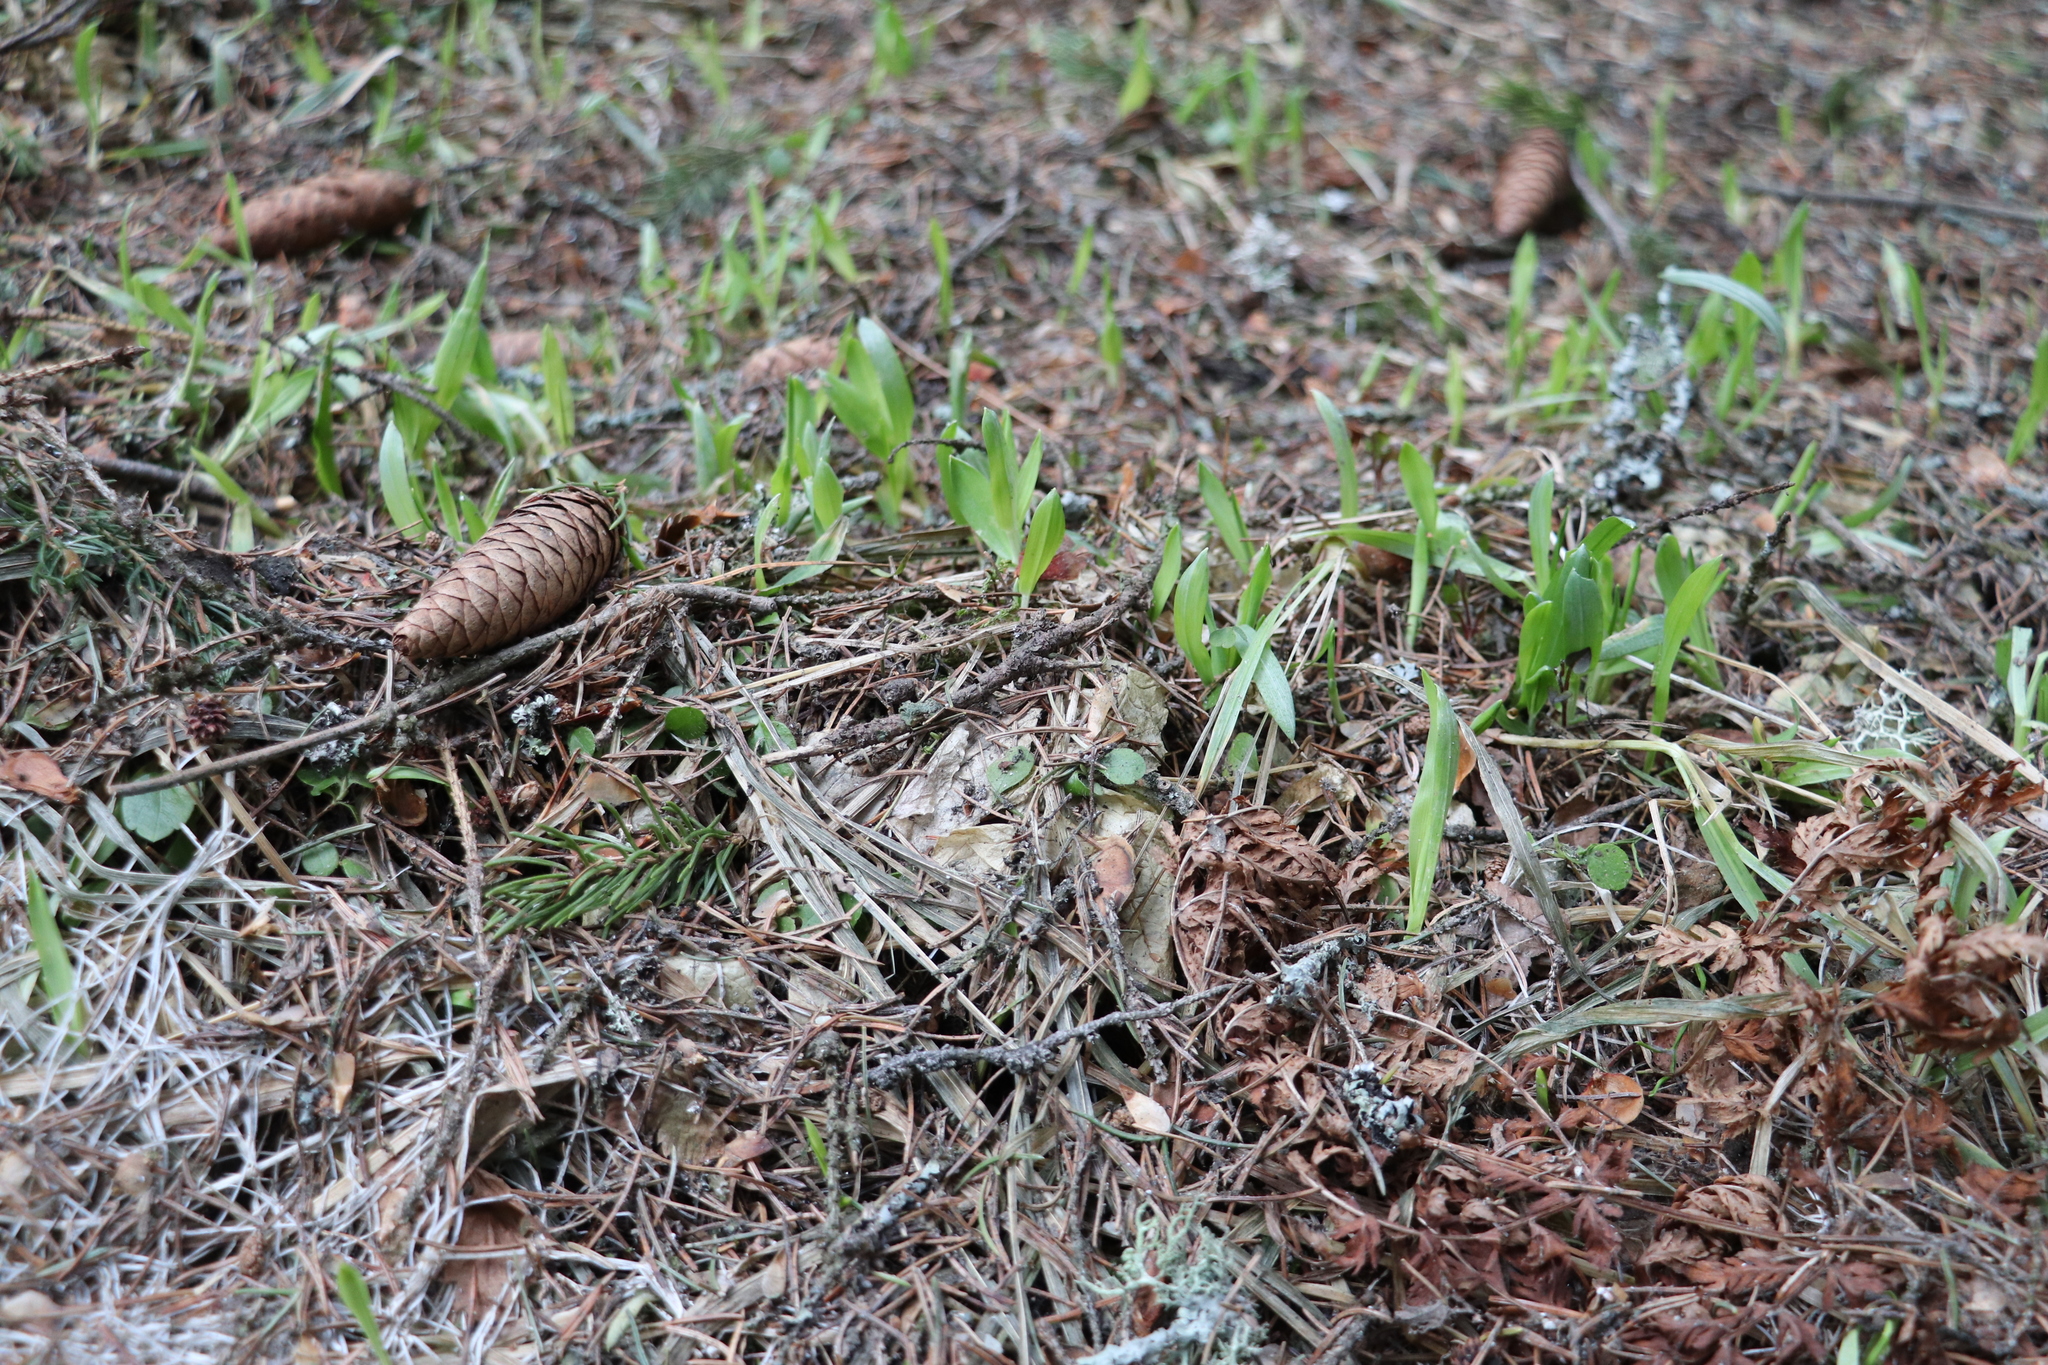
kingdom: Plantae
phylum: Tracheophyta
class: Liliopsida
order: Poales
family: Poaceae
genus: Milium
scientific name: Milium effusum
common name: Wood millet
